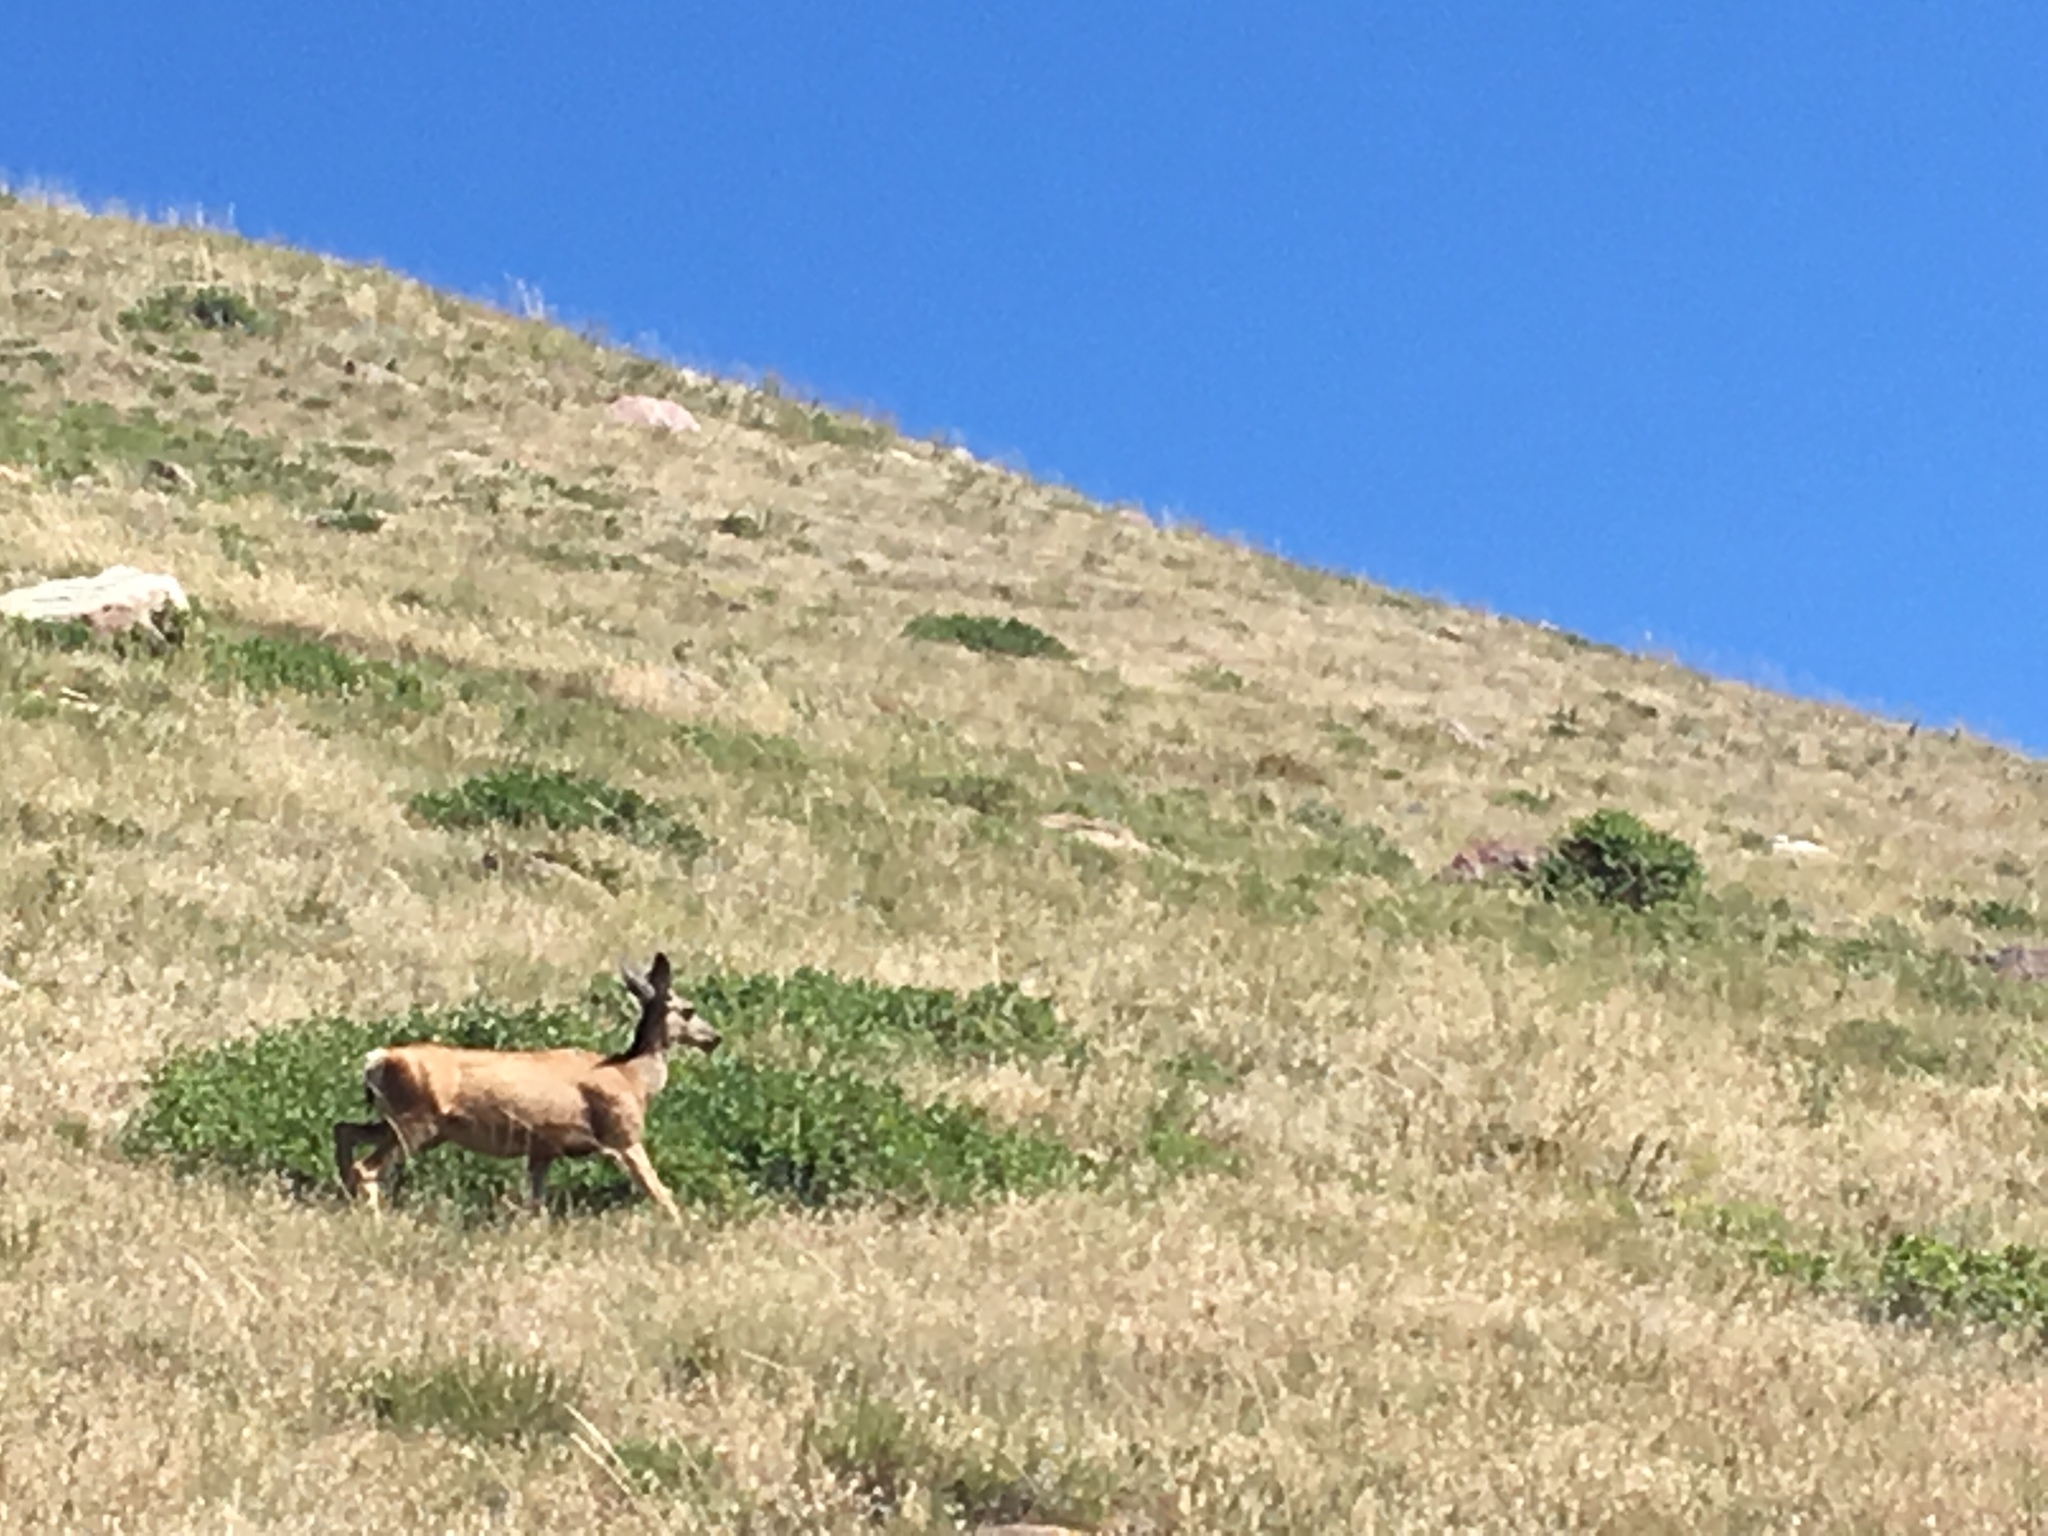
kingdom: Animalia
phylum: Chordata
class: Mammalia
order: Artiodactyla
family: Cervidae
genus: Odocoileus
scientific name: Odocoileus hemionus
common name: Mule deer
